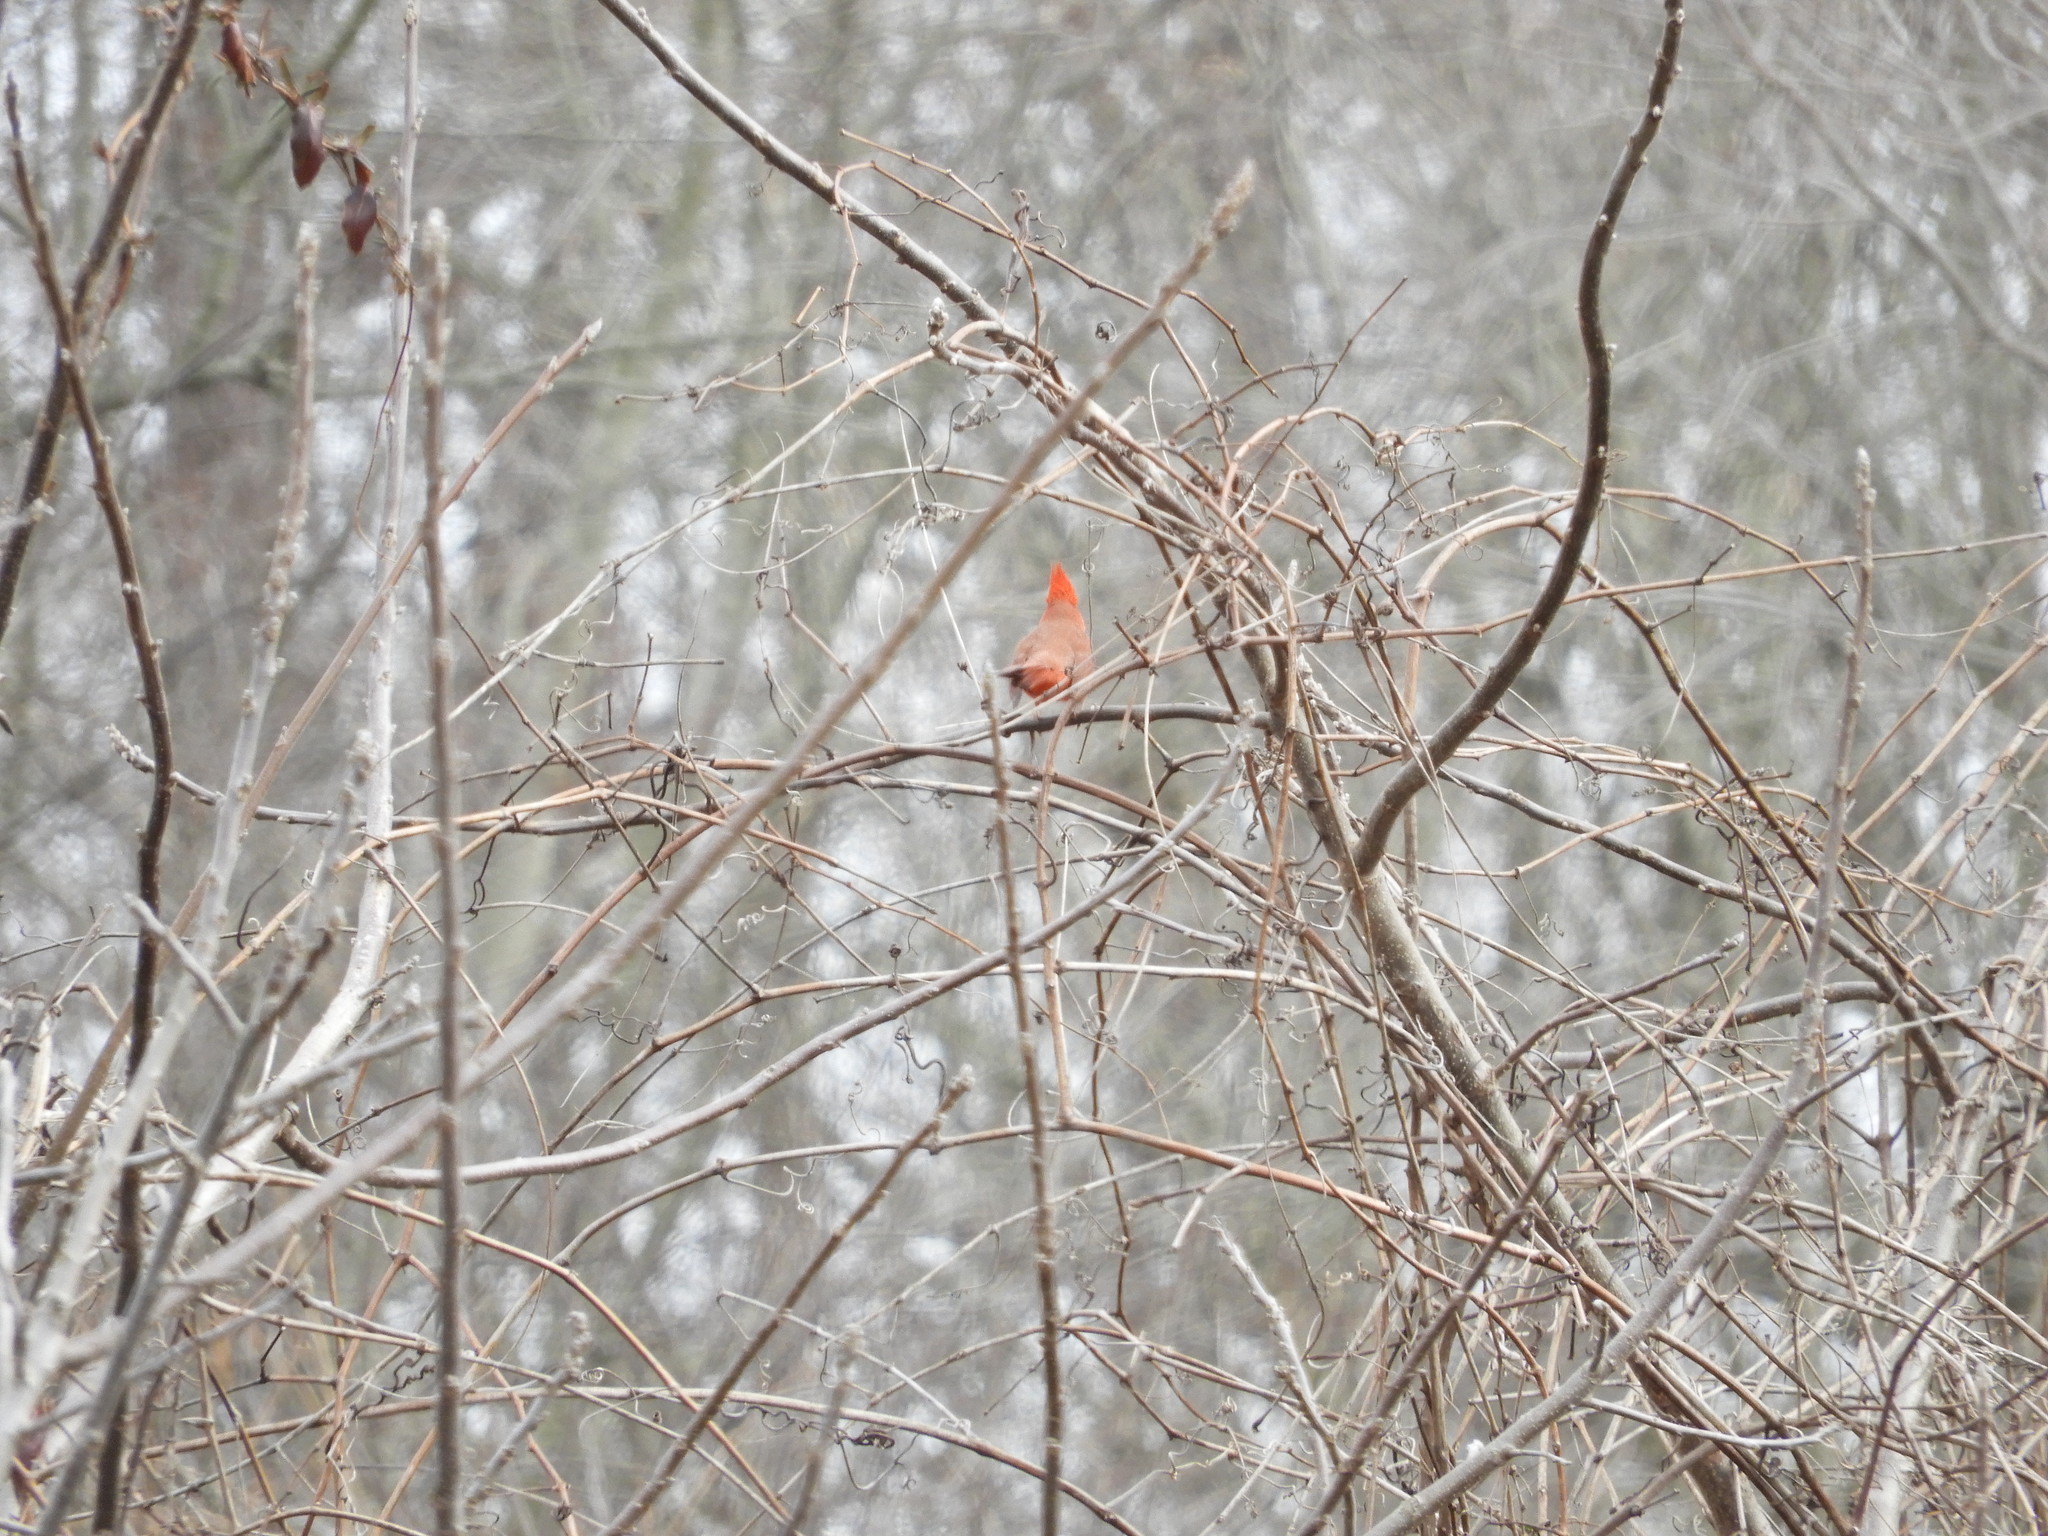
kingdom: Animalia
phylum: Chordata
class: Aves
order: Passeriformes
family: Cardinalidae
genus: Cardinalis
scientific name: Cardinalis cardinalis
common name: Northern cardinal
